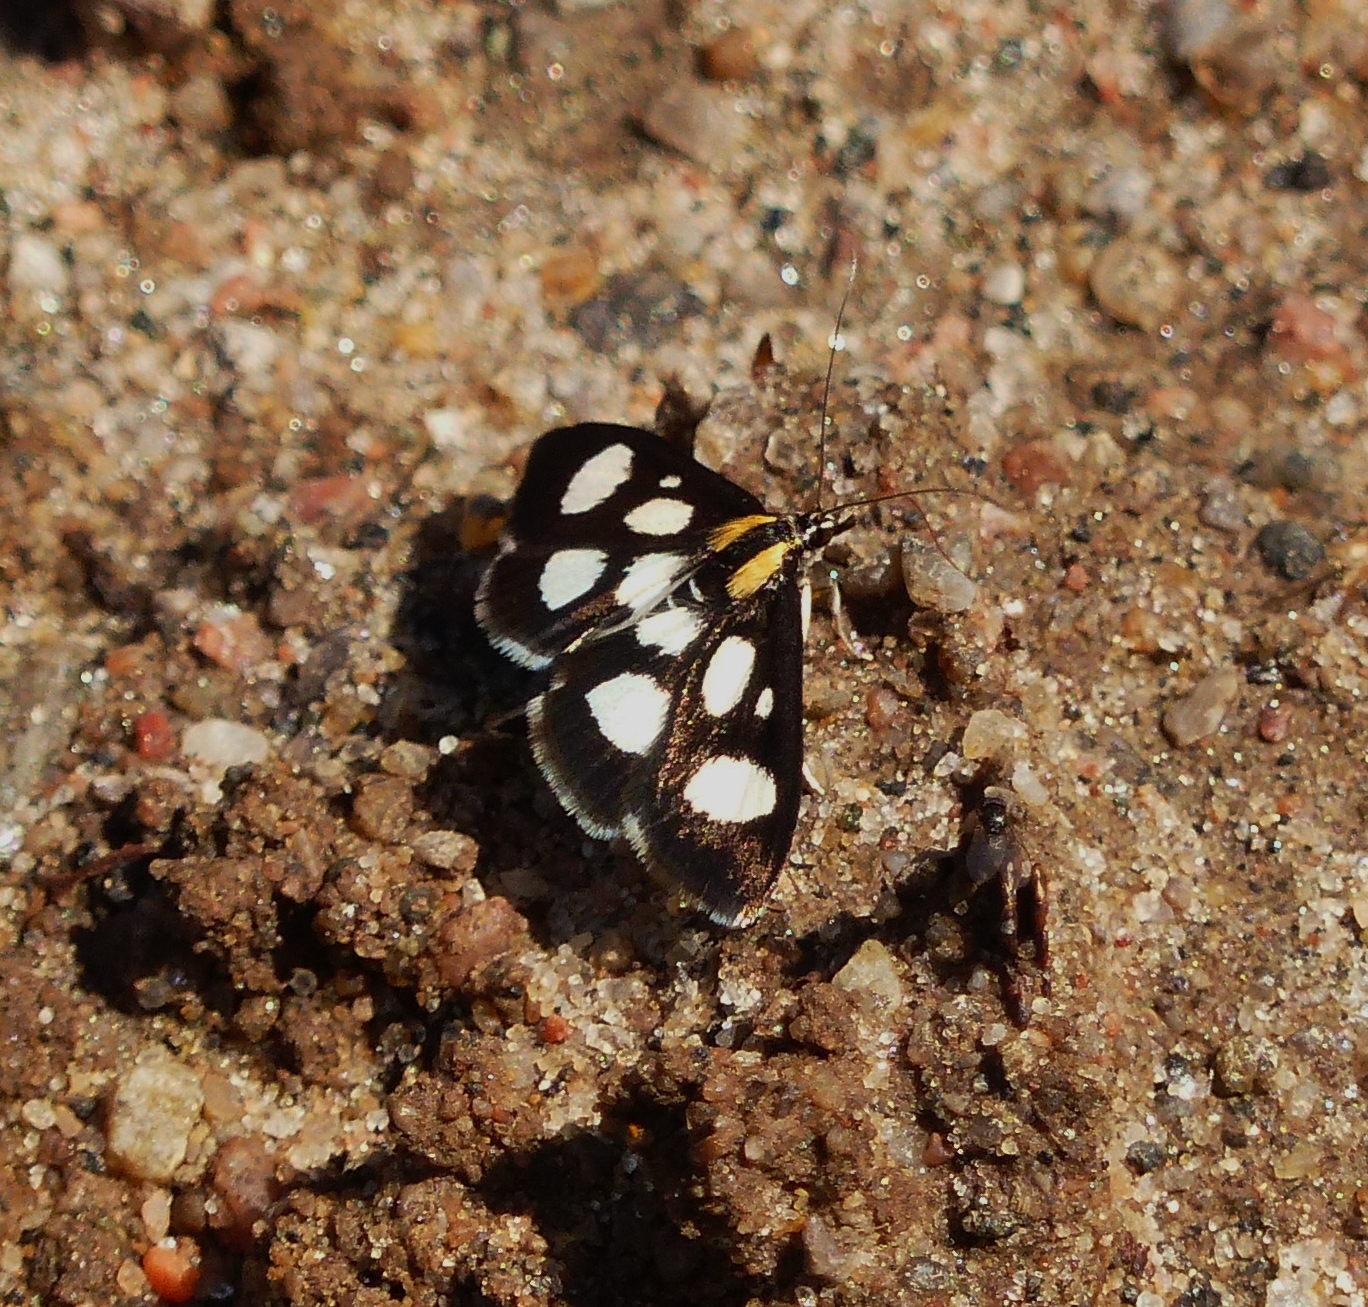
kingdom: Animalia
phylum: Arthropoda
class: Insecta
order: Lepidoptera
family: Crambidae
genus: Anania
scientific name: Anania funebris
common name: White-spotted sable moth
